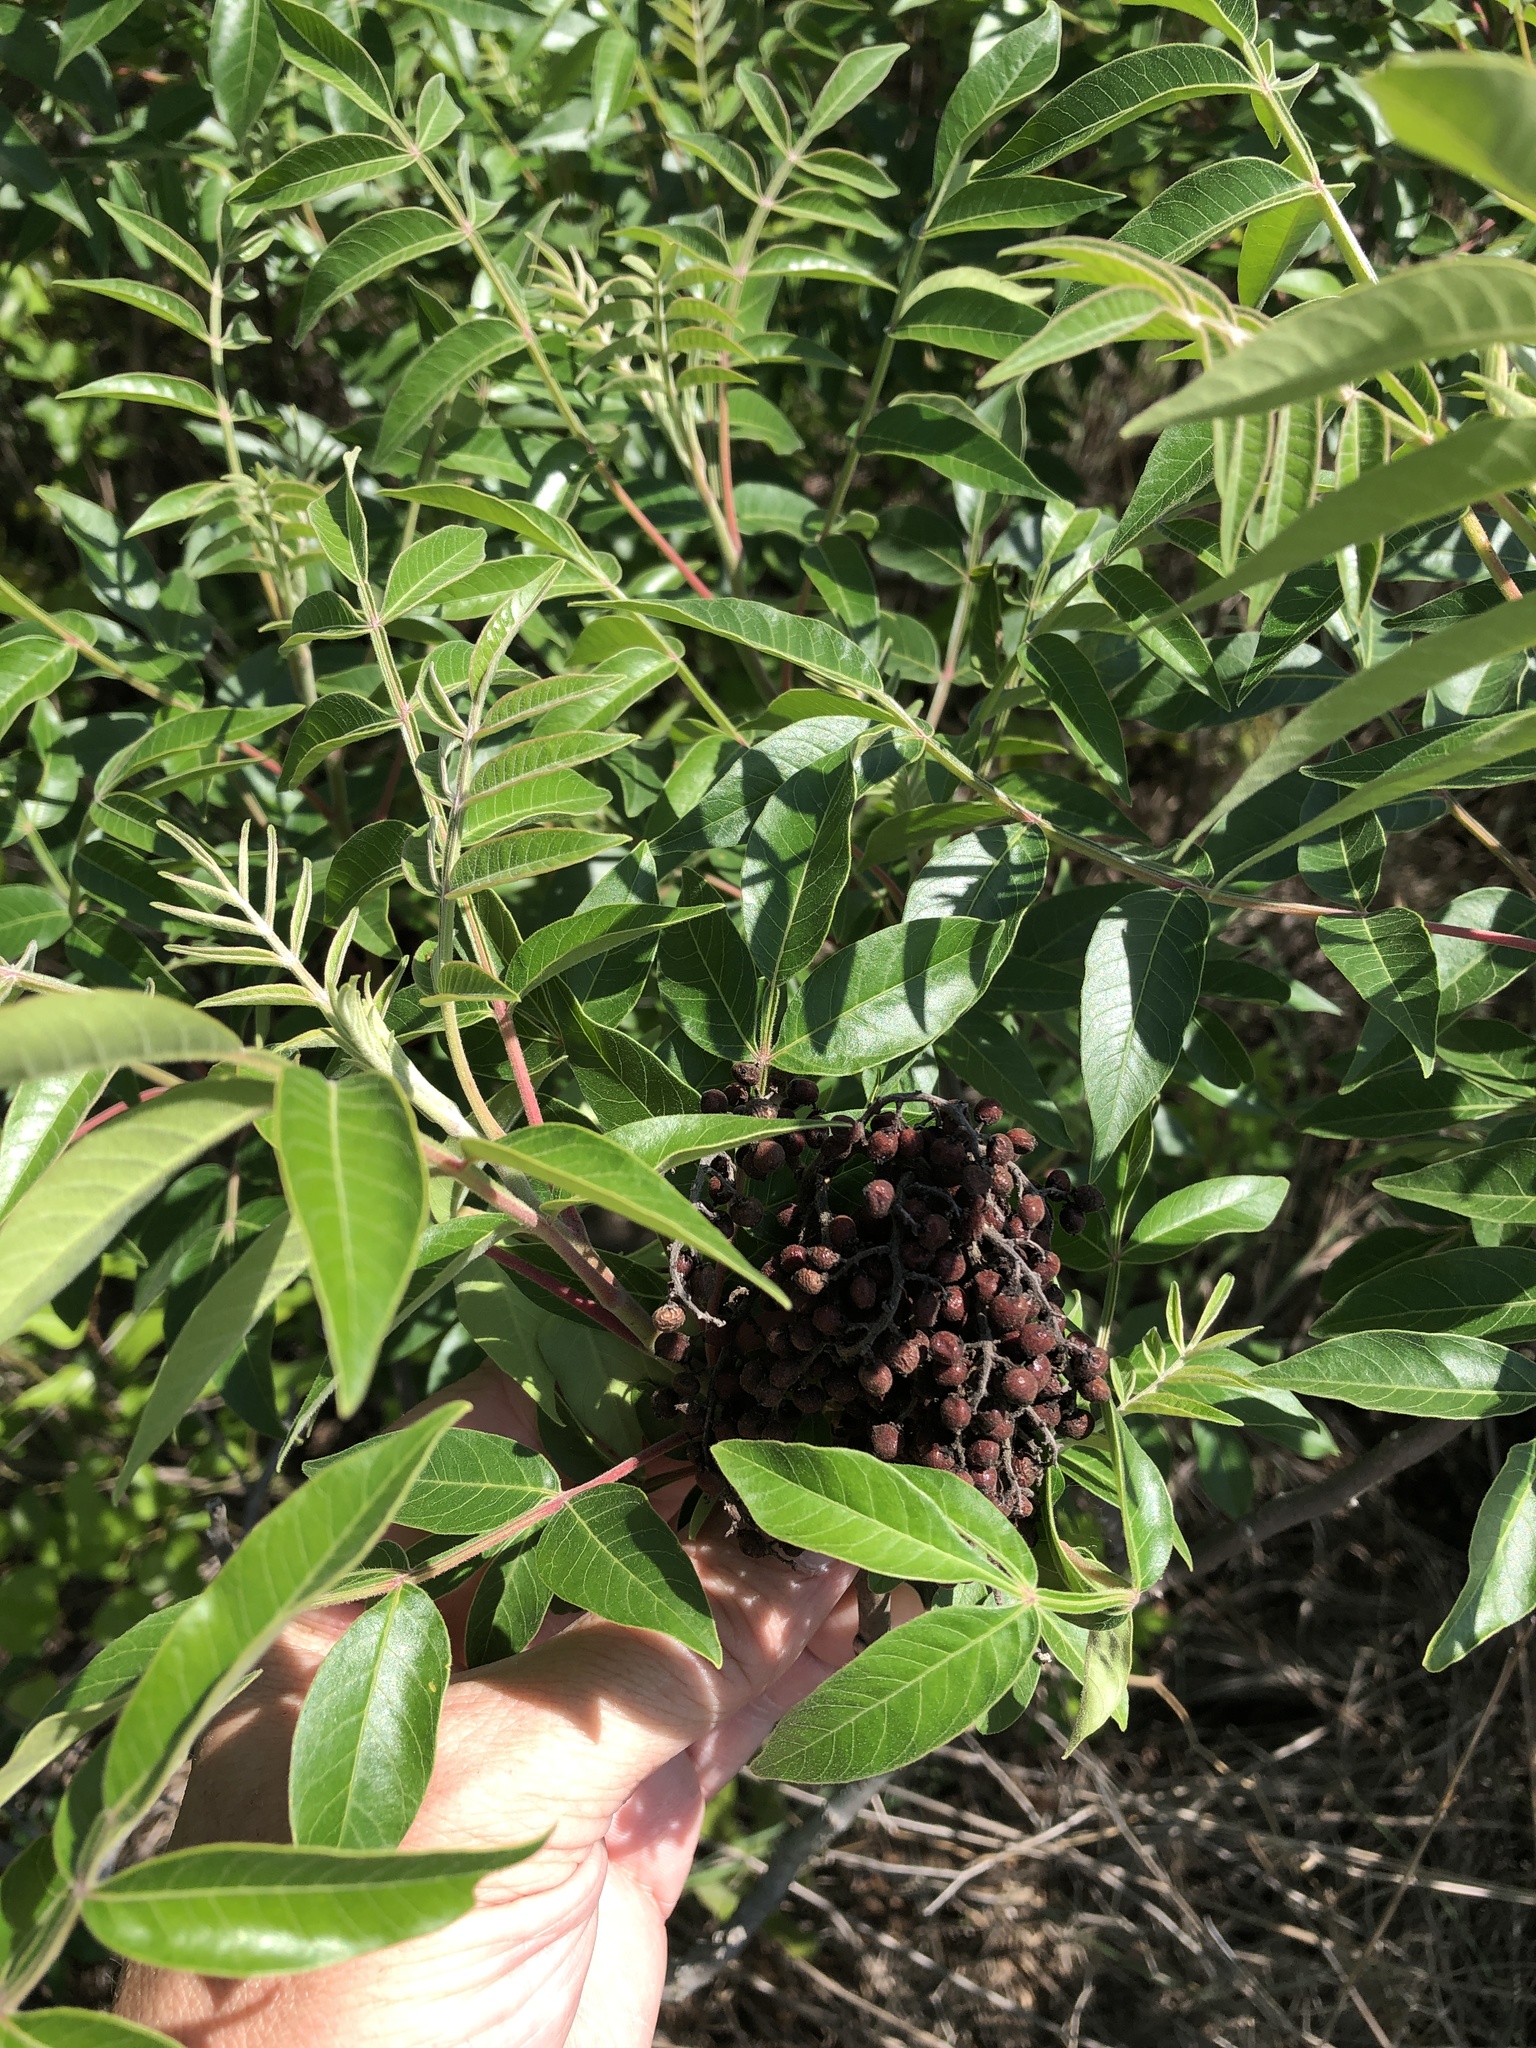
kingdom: Plantae
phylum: Tracheophyta
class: Magnoliopsida
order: Sapindales
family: Anacardiaceae
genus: Rhus
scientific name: Rhus copallina
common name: Shining sumac
